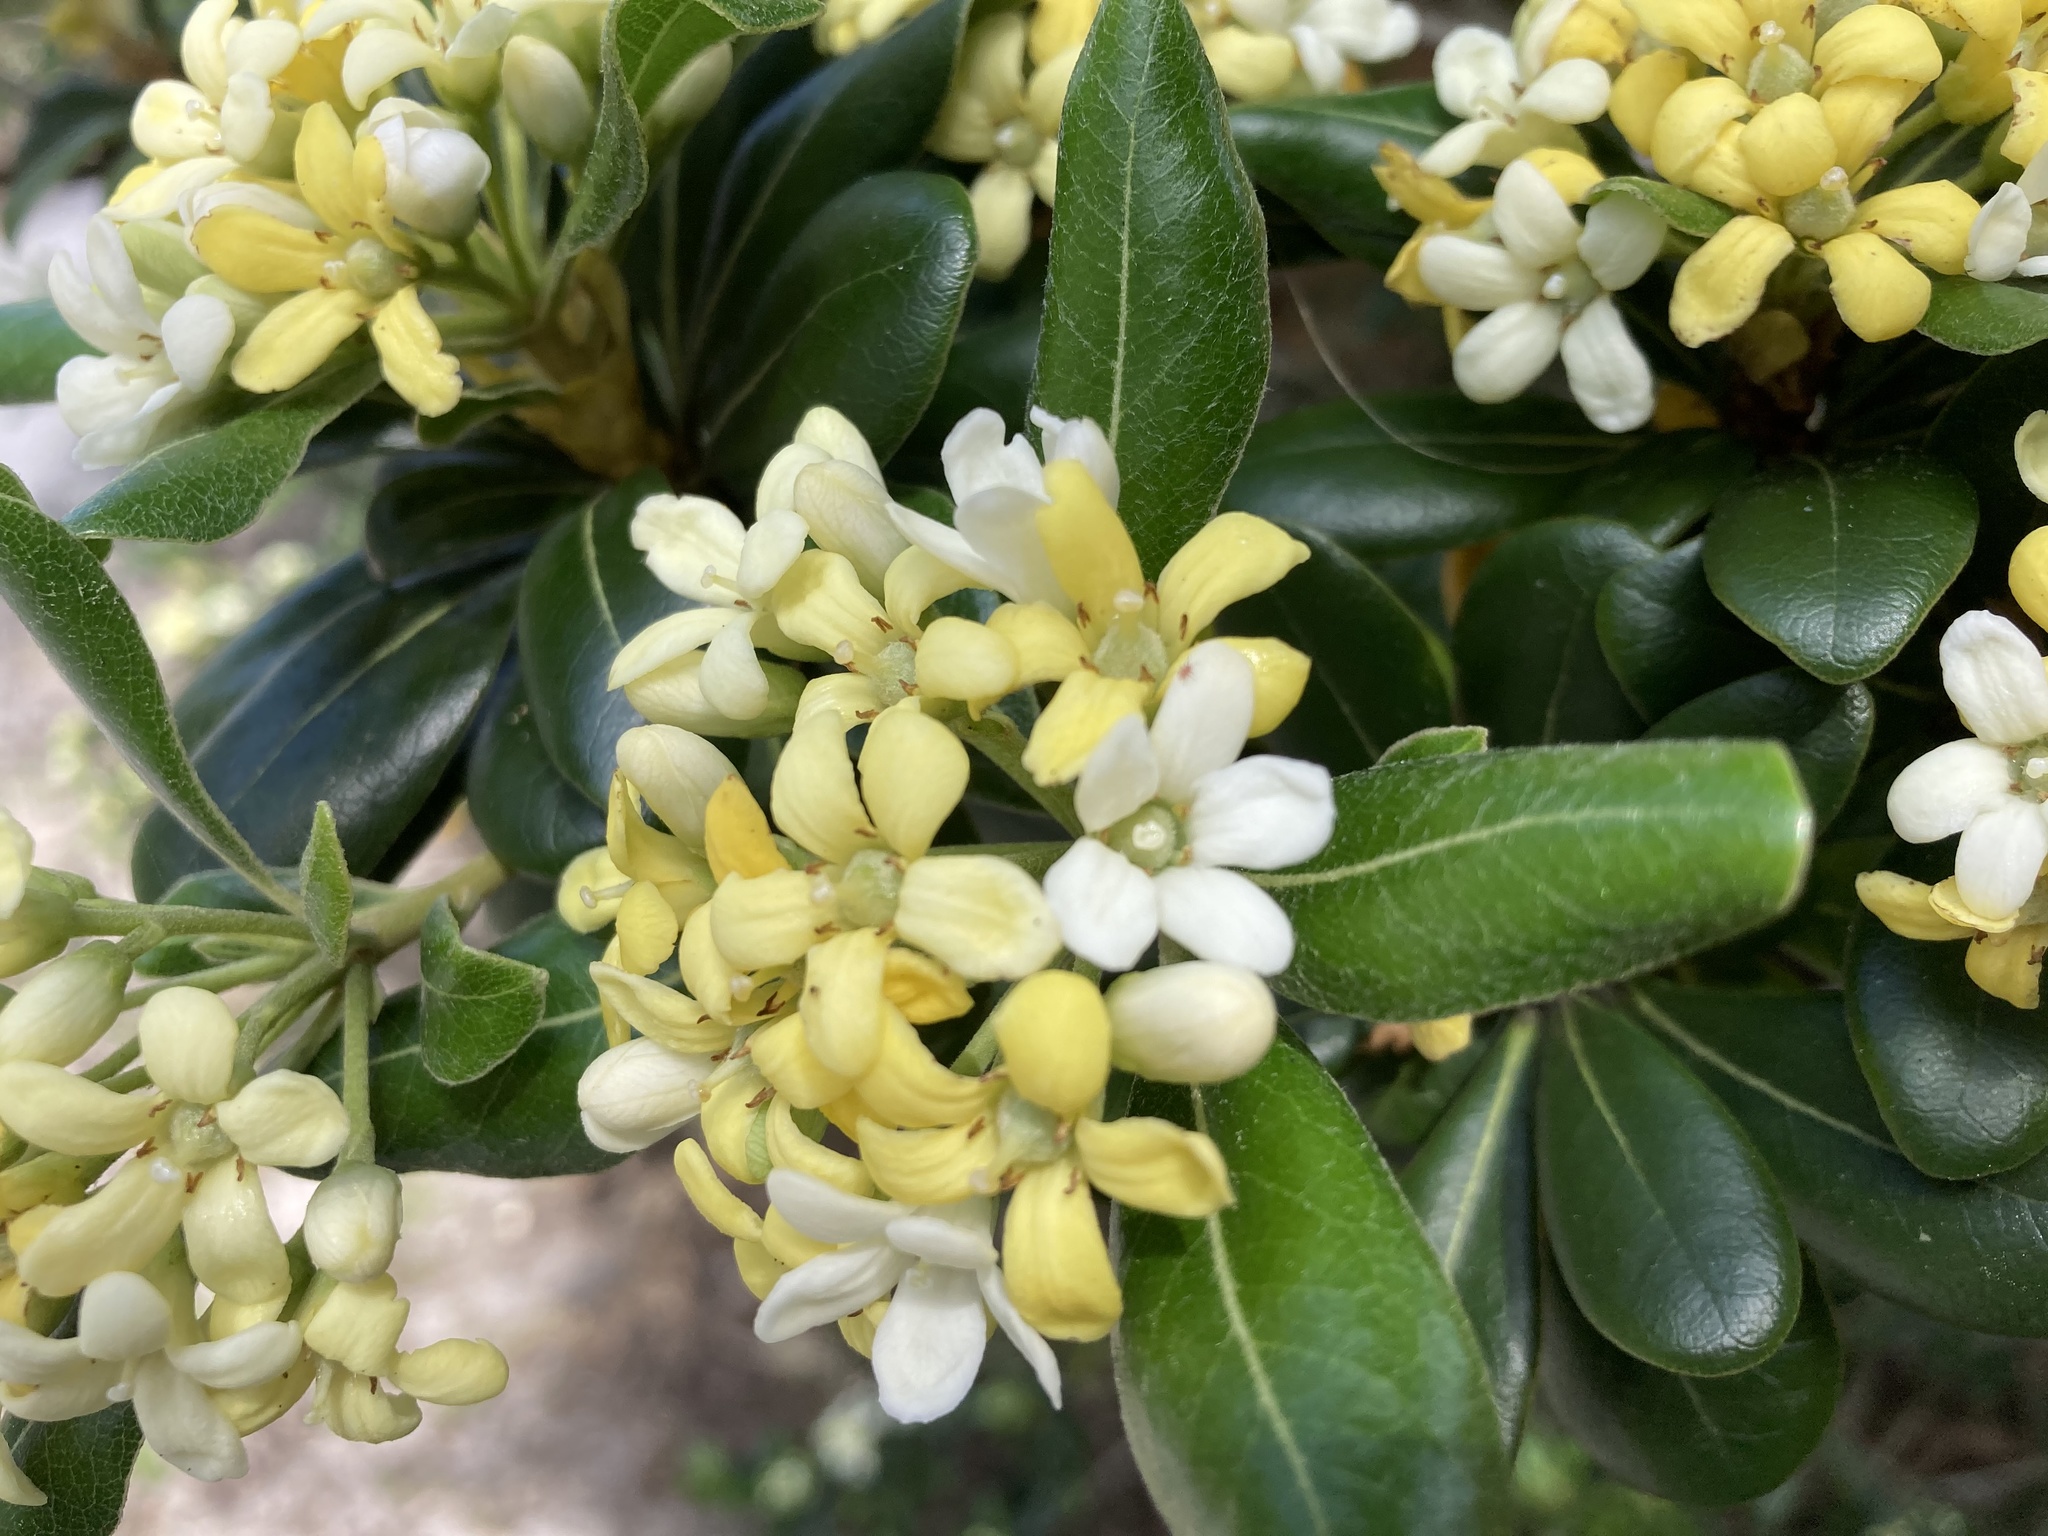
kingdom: Plantae
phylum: Tracheophyta
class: Magnoliopsida
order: Apiales
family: Pittosporaceae
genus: Pittosporum
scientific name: Pittosporum tobira
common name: Japanese cheesewood
